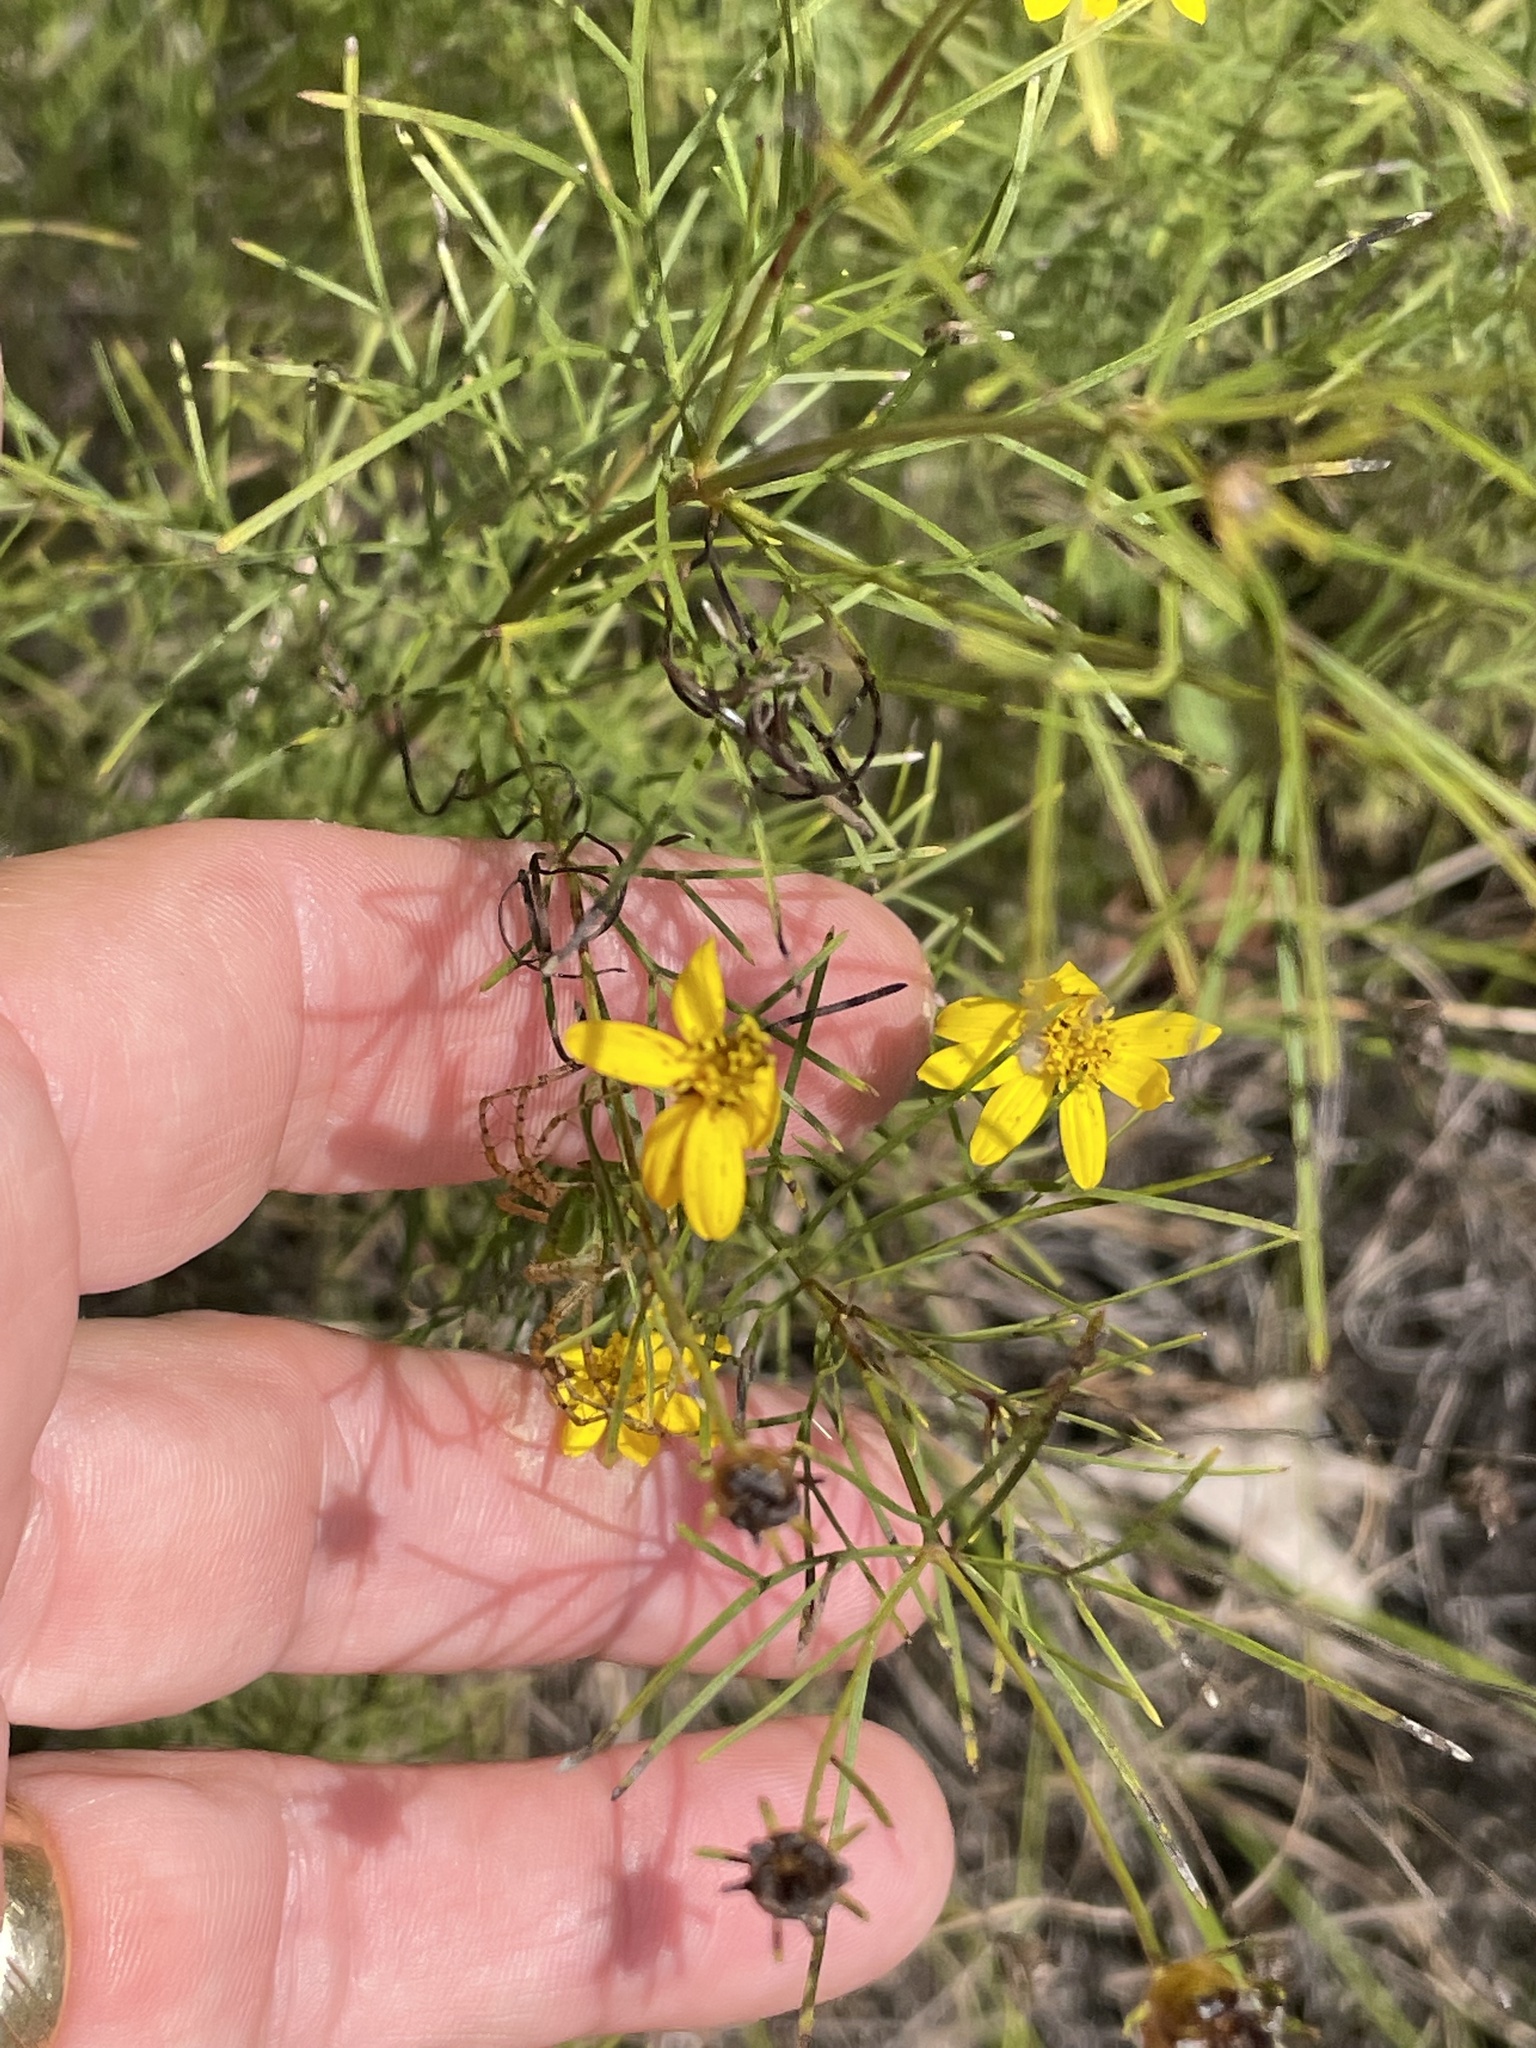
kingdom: Plantae
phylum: Tracheophyta
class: Magnoliopsida
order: Asterales
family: Asteraceae
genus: Coreopsis
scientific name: Coreopsis verticillata
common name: Whorled tickseed
